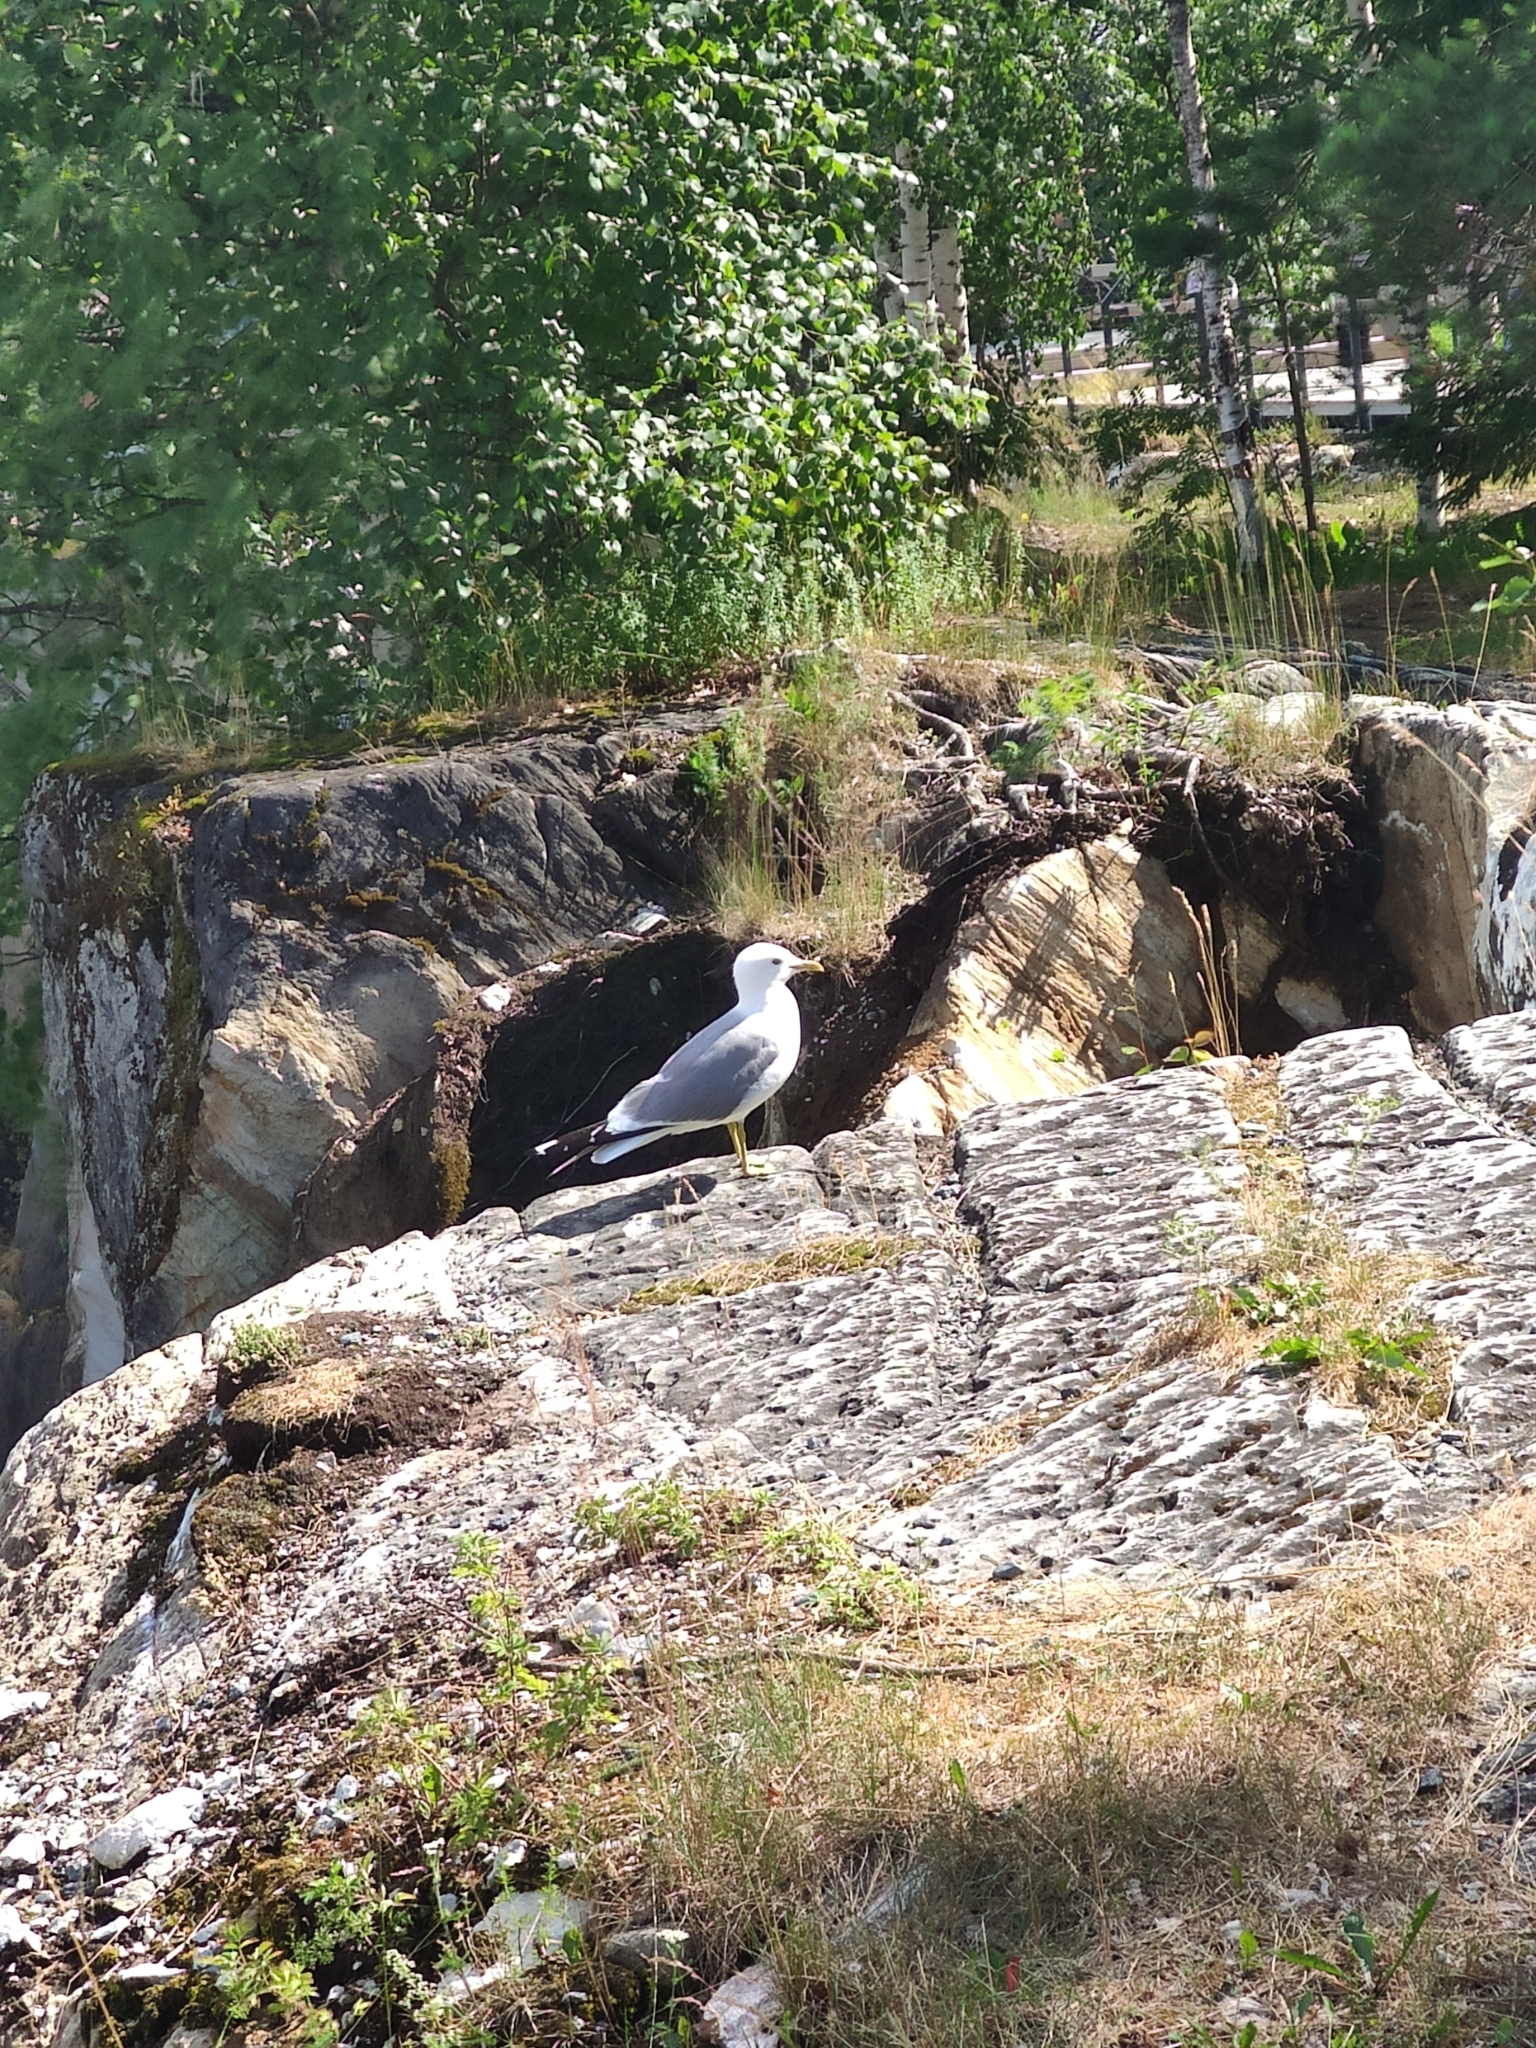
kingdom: Animalia
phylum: Chordata
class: Aves
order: Charadriiformes
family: Laridae
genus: Larus
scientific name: Larus canus
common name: Mew gull
